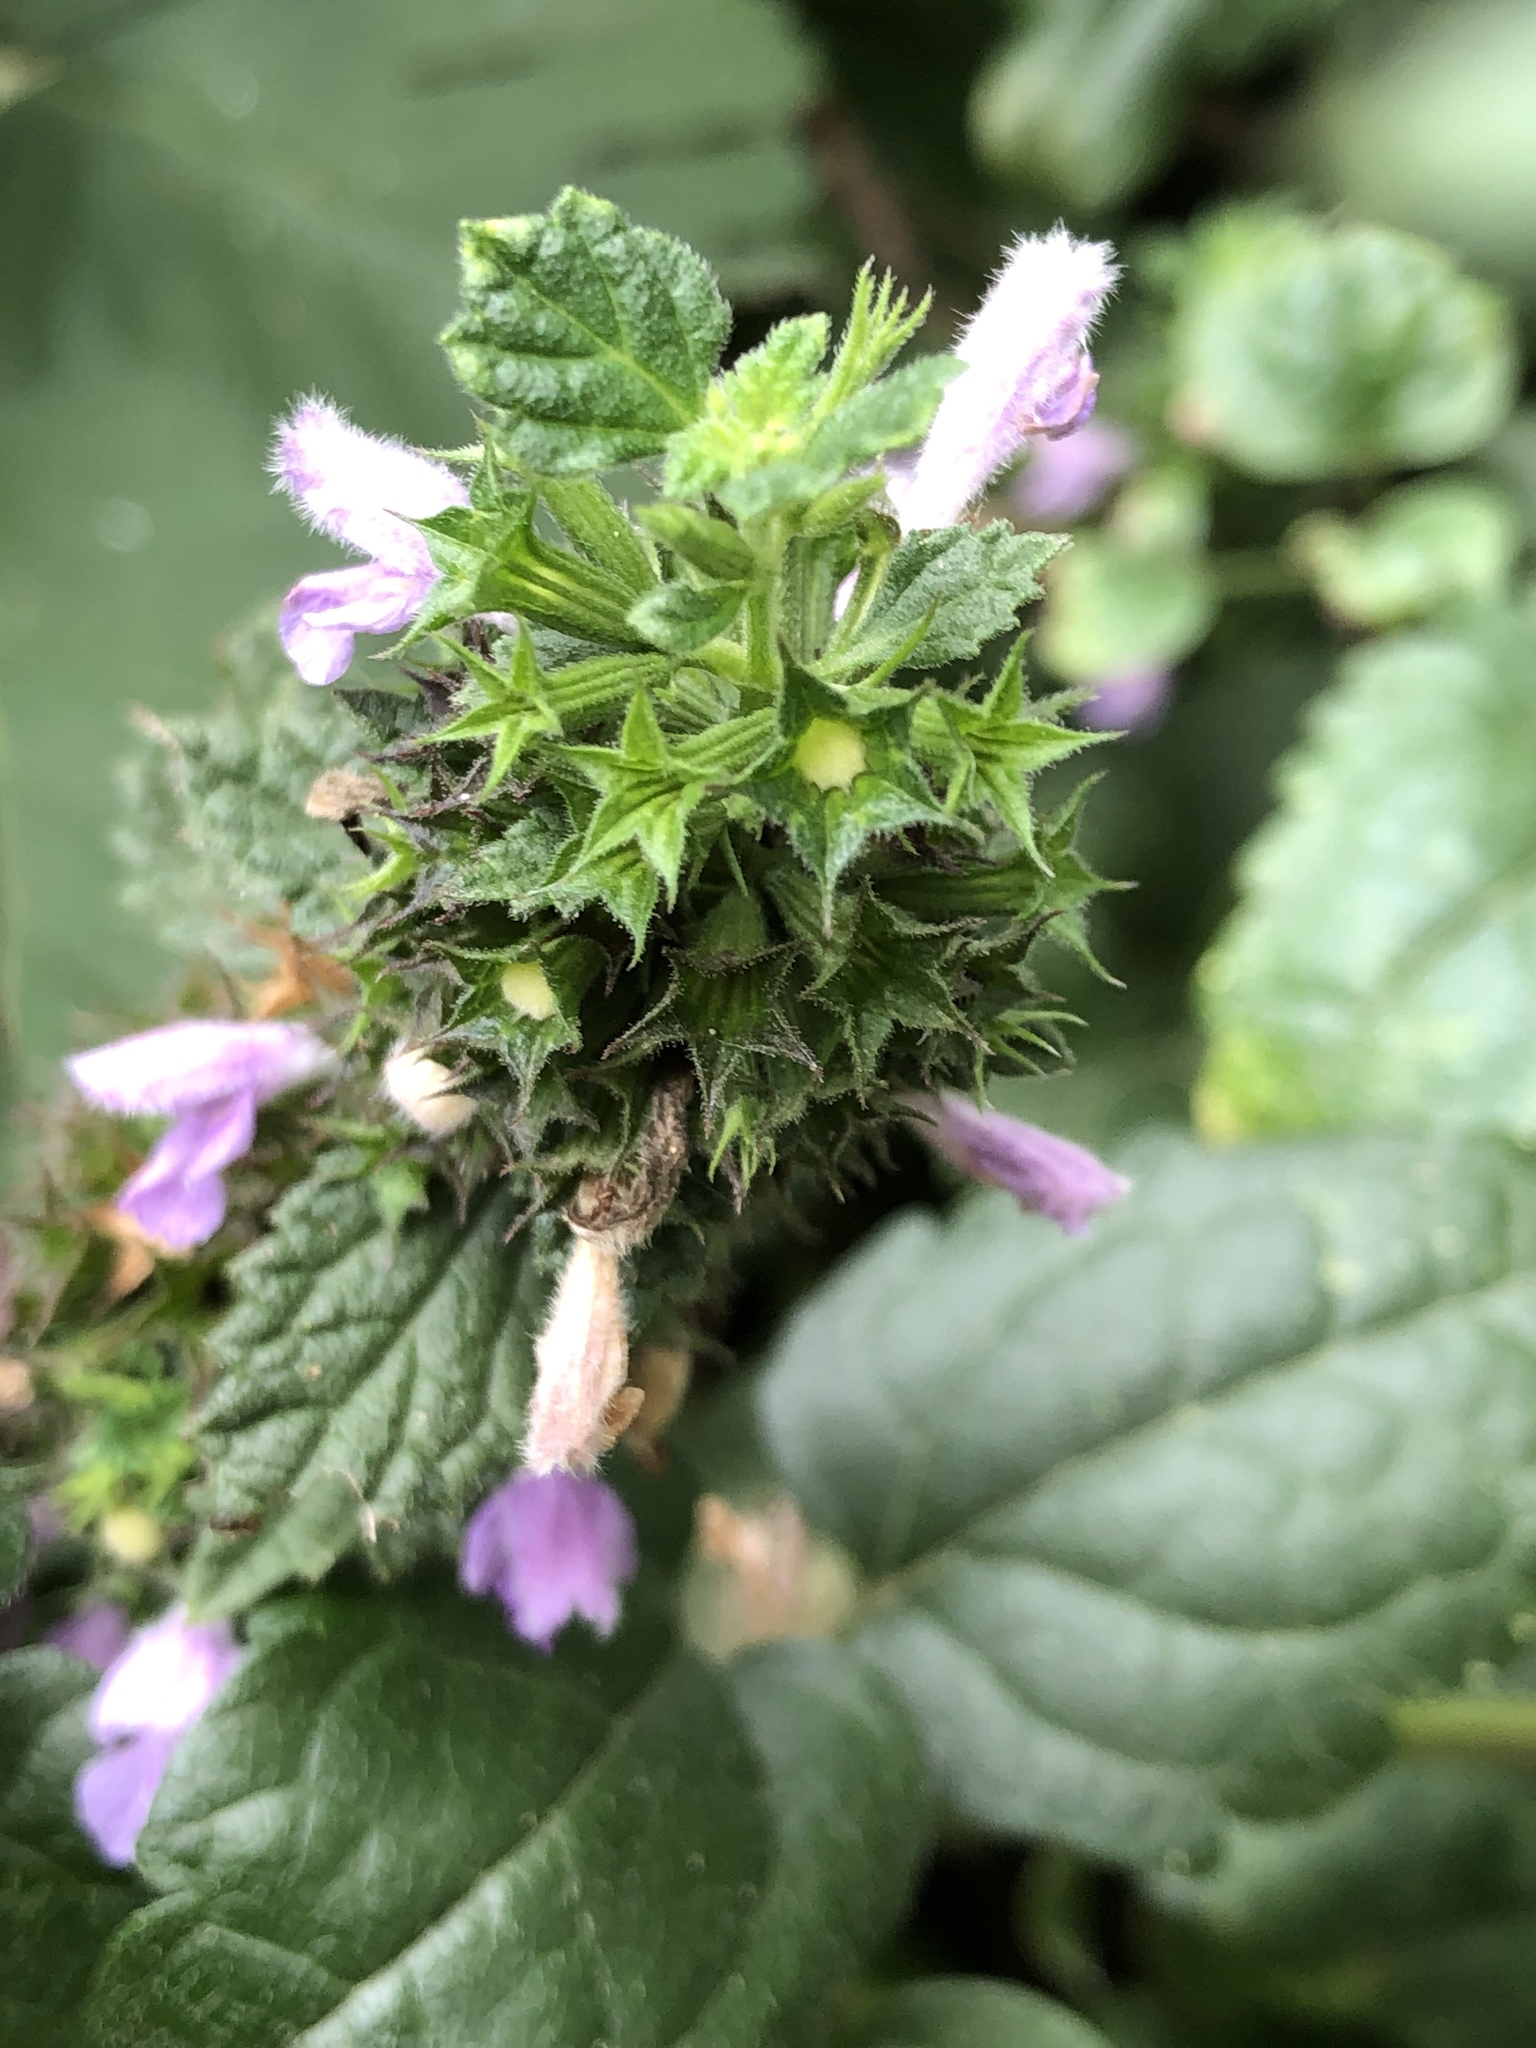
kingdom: Plantae
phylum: Tracheophyta
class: Magnoliopsida
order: Lamiales
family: Lamiaceae
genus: Ballota
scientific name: Ballota nigra
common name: Black horehound
